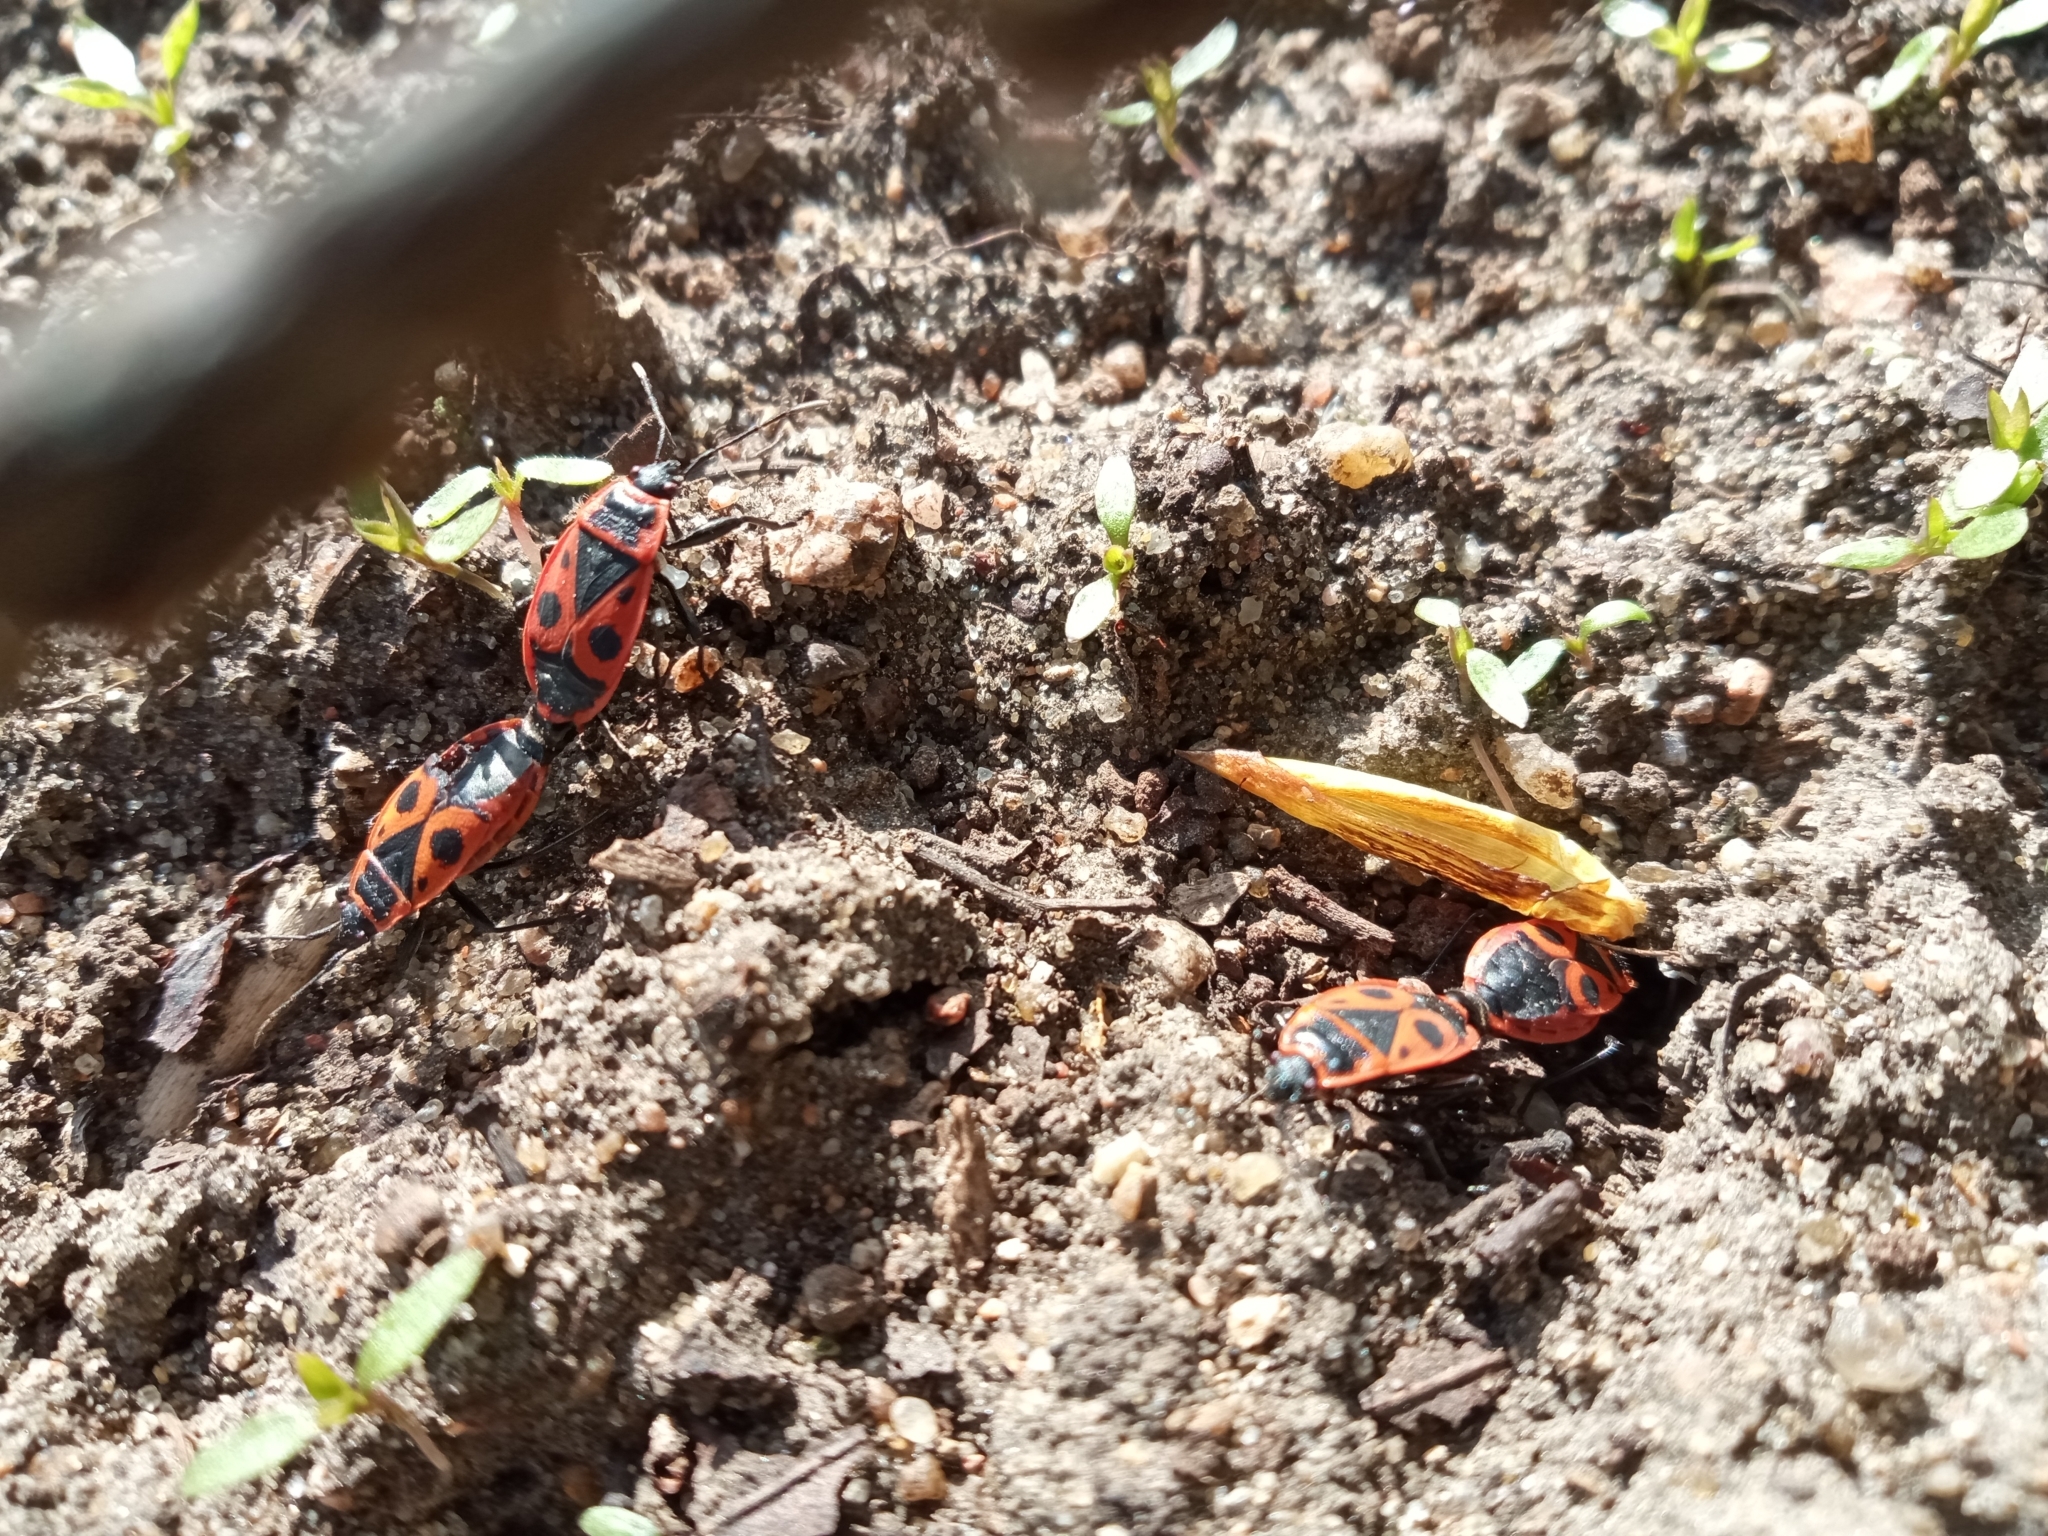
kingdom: Animalia
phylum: Arthropoda
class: Insecta
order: Hemiptera
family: Pyrrhocoridae
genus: Pyrrhocoris
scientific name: Pyrrhocoris apterus
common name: Firebug
